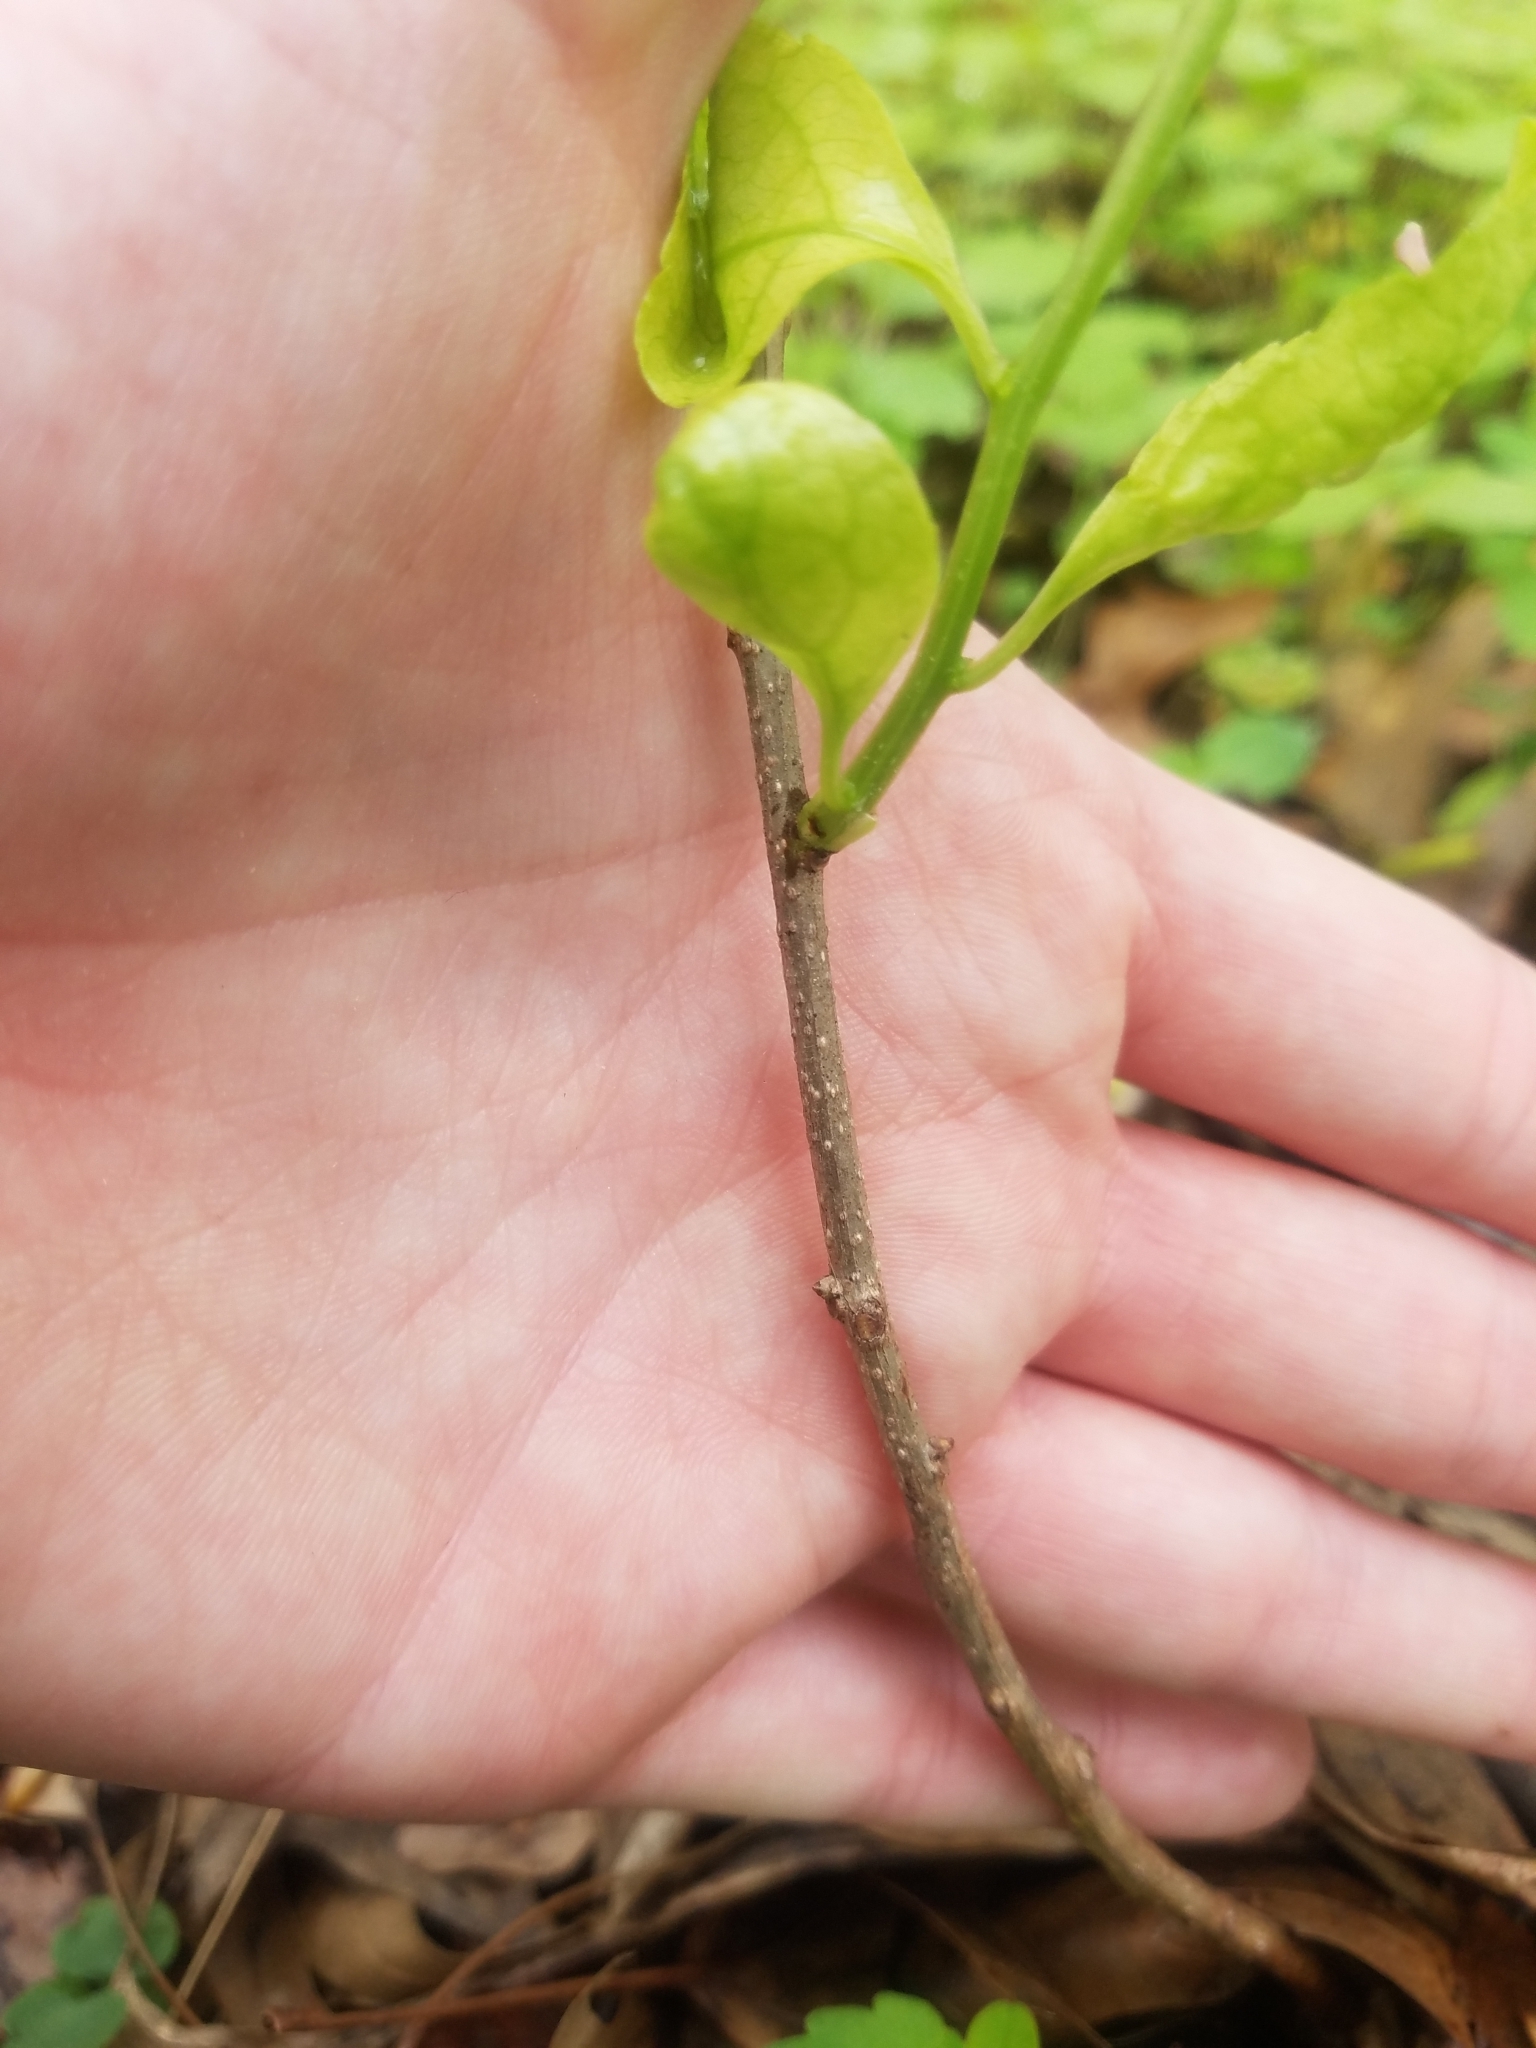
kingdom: Plantae
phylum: Tracheophyta
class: Magnoliopsida
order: Celastrales
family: Celastraceae
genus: Celastrus
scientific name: Celastrus orbiculatus
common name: Oriental bittersweet
